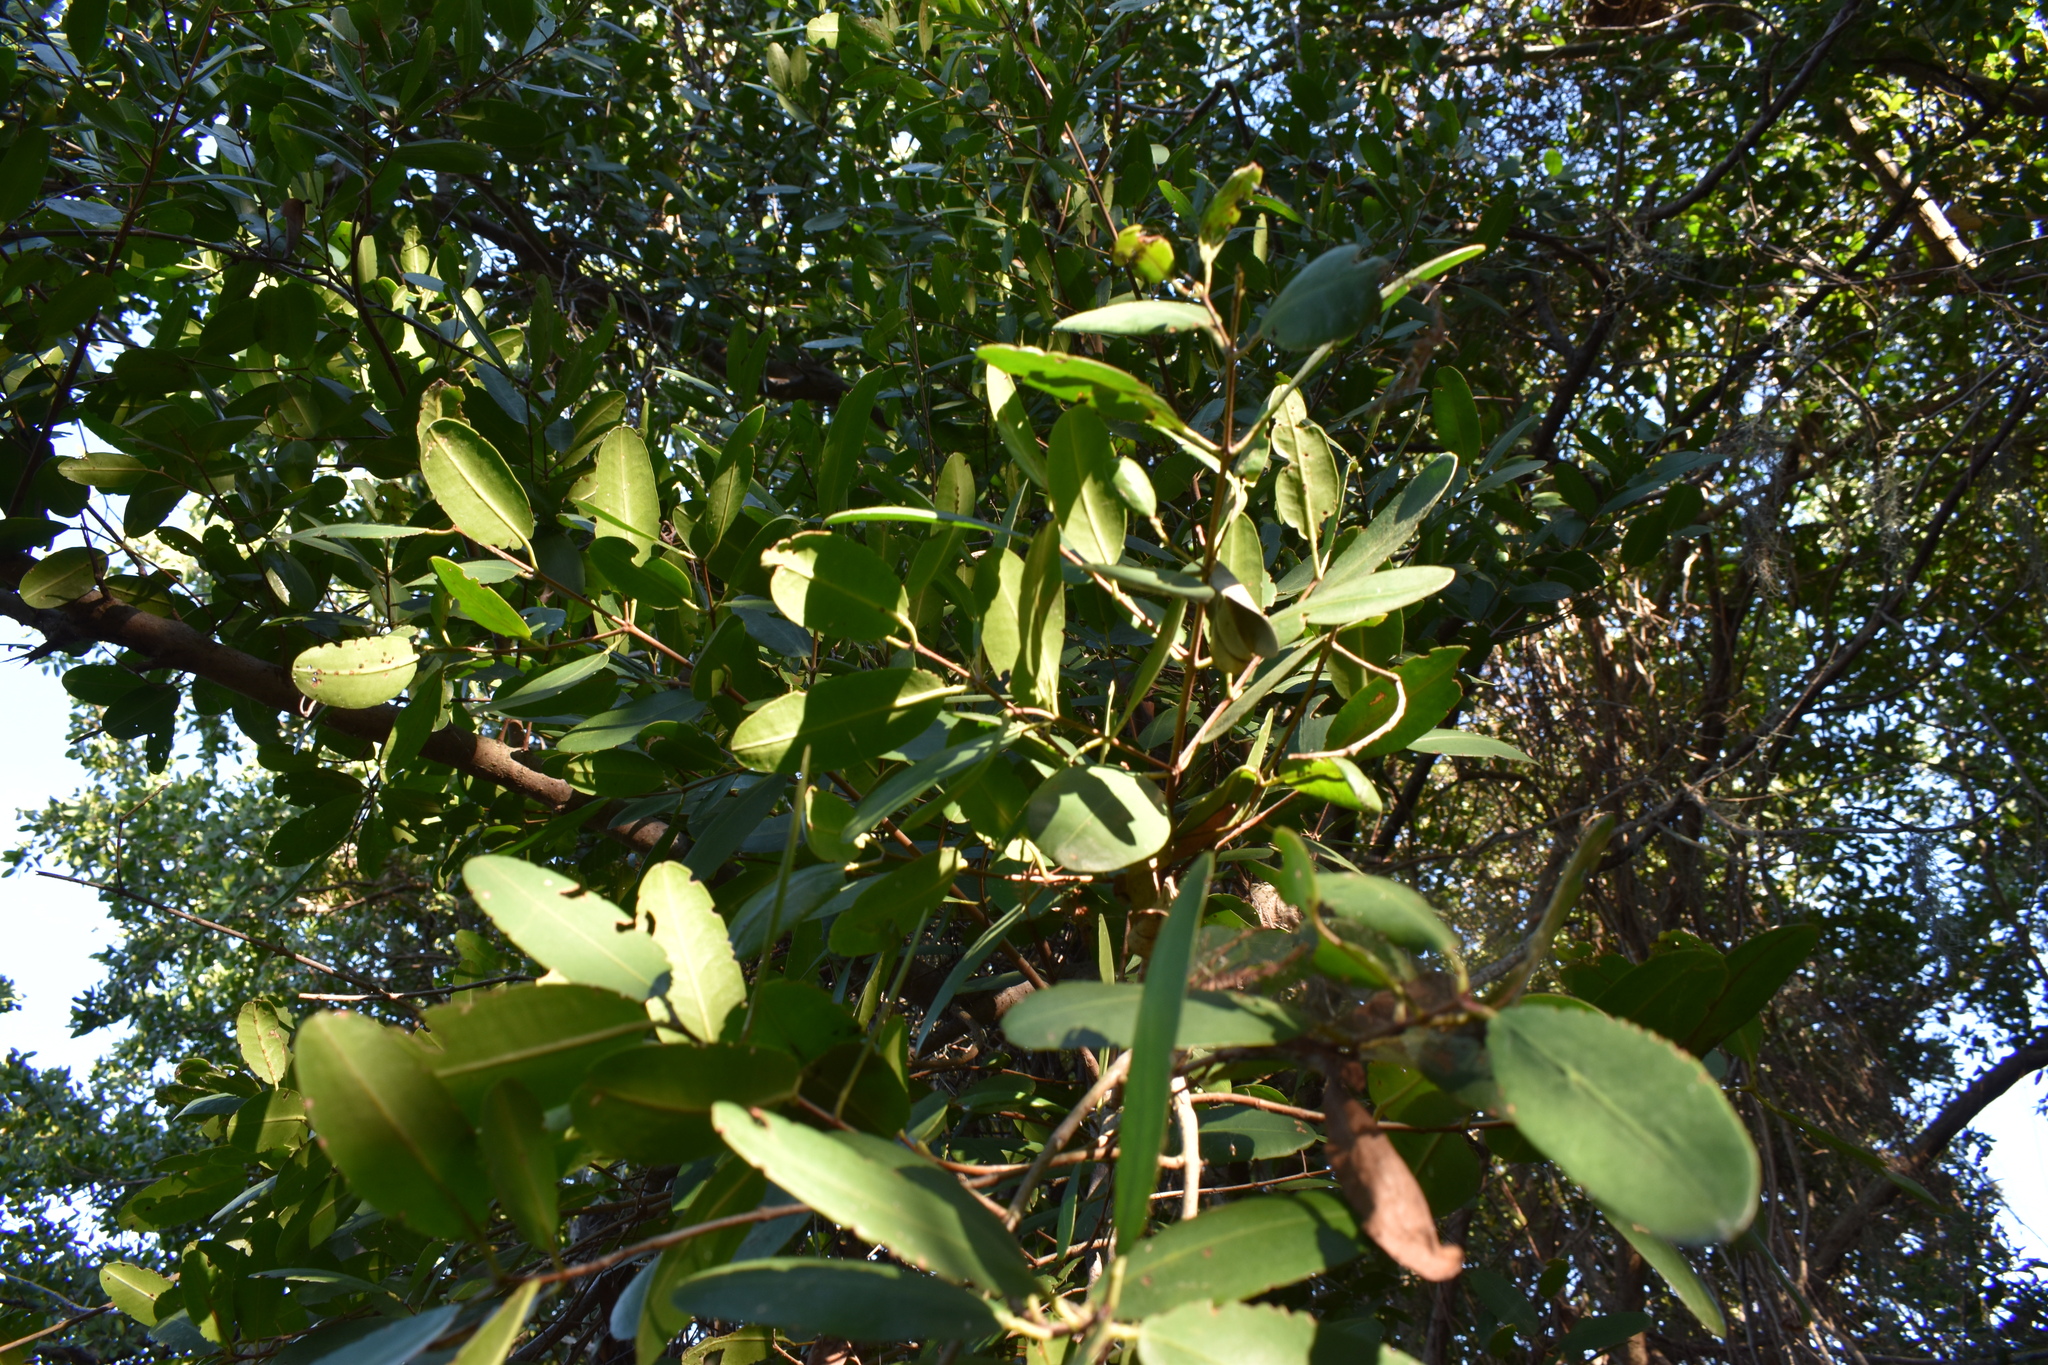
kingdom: Plantae
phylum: Tracheophyta
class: Magnoliopsida
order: Myrtales
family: Combretaceae
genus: Laguncularia
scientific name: Laguncularia racemosa
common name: White mangrove
